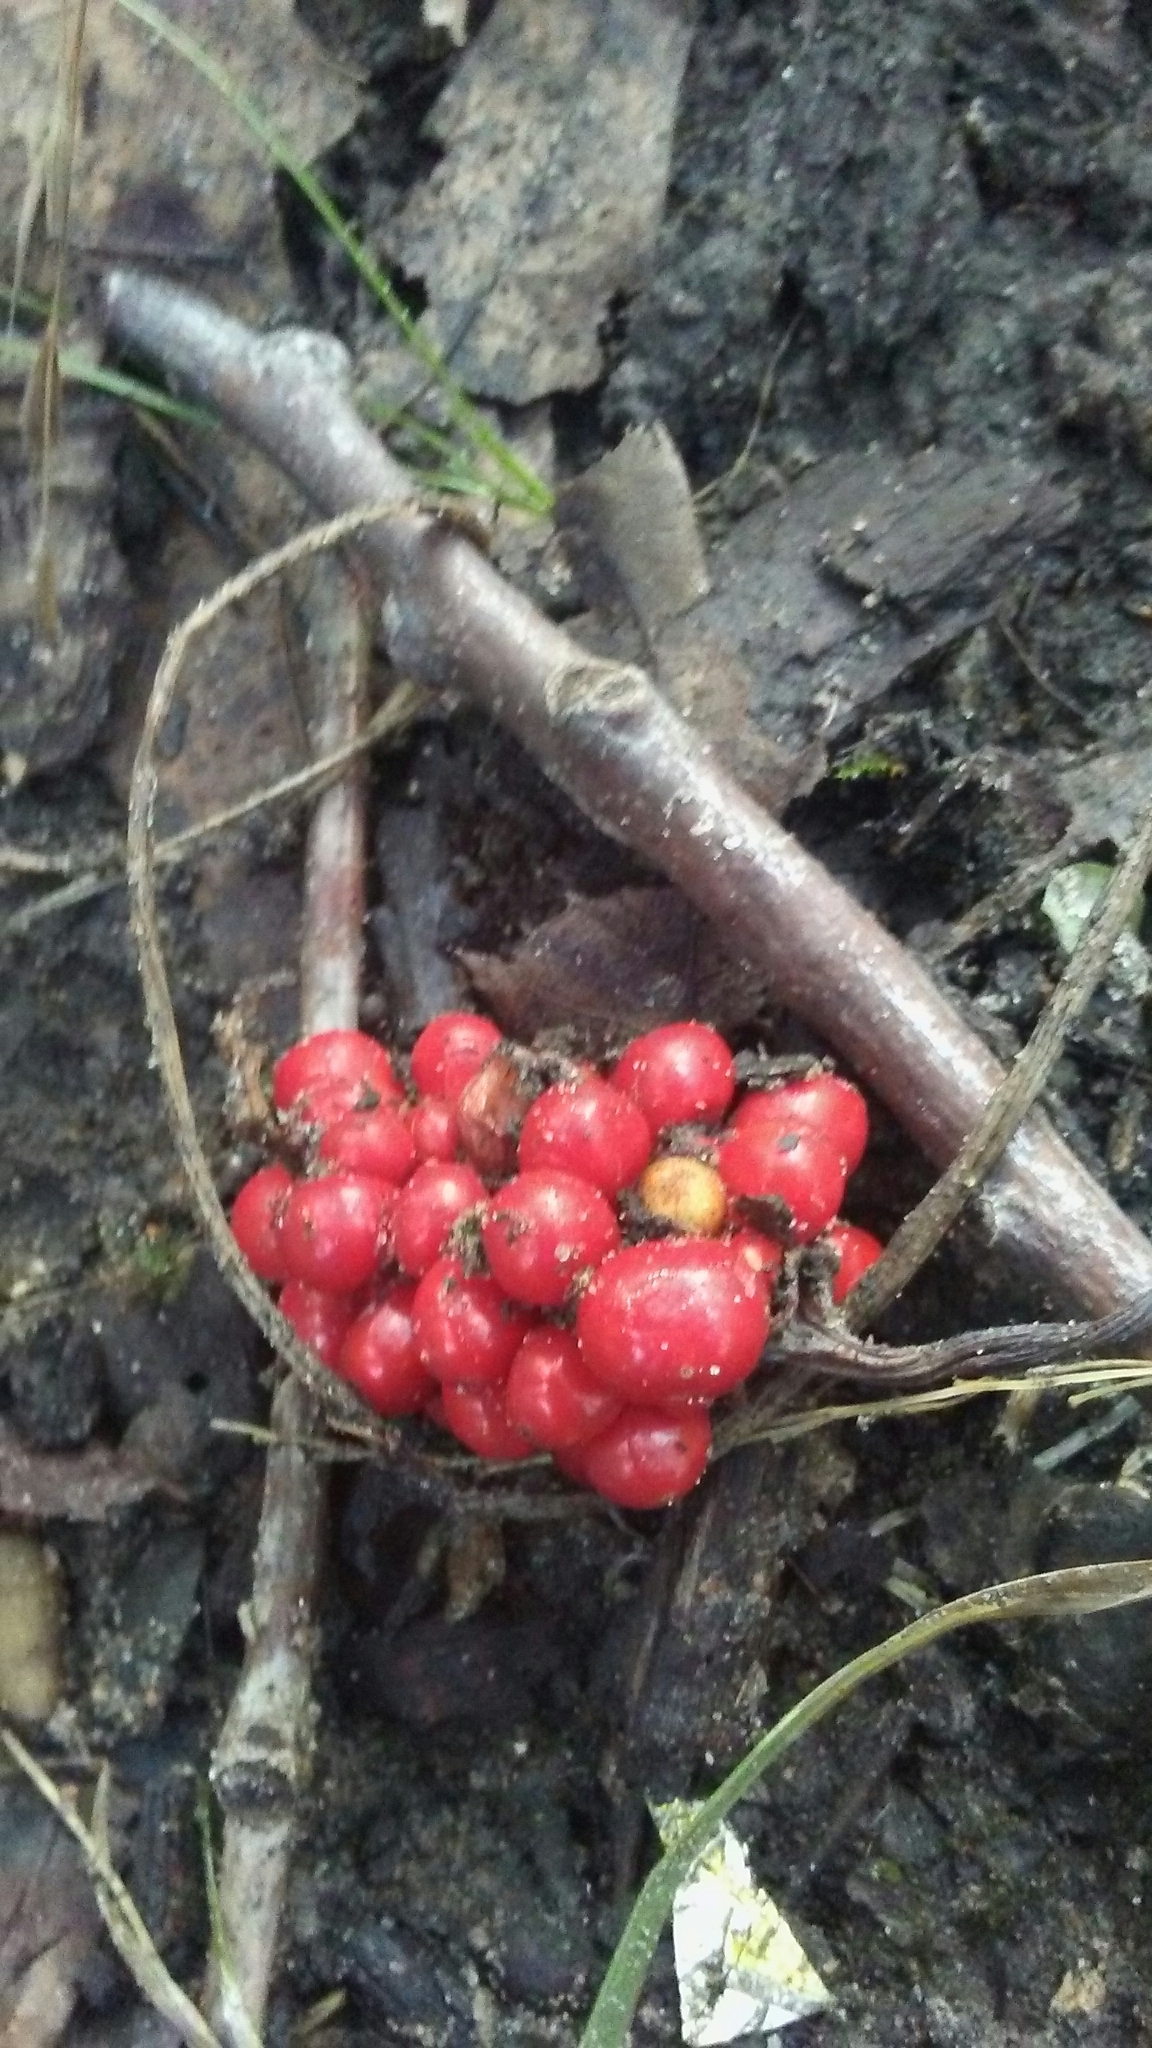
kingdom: Plantae
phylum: Tracheophyta
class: Liliopsida
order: Alismatales
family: Araceae
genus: Arisaema
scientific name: Arisaema
